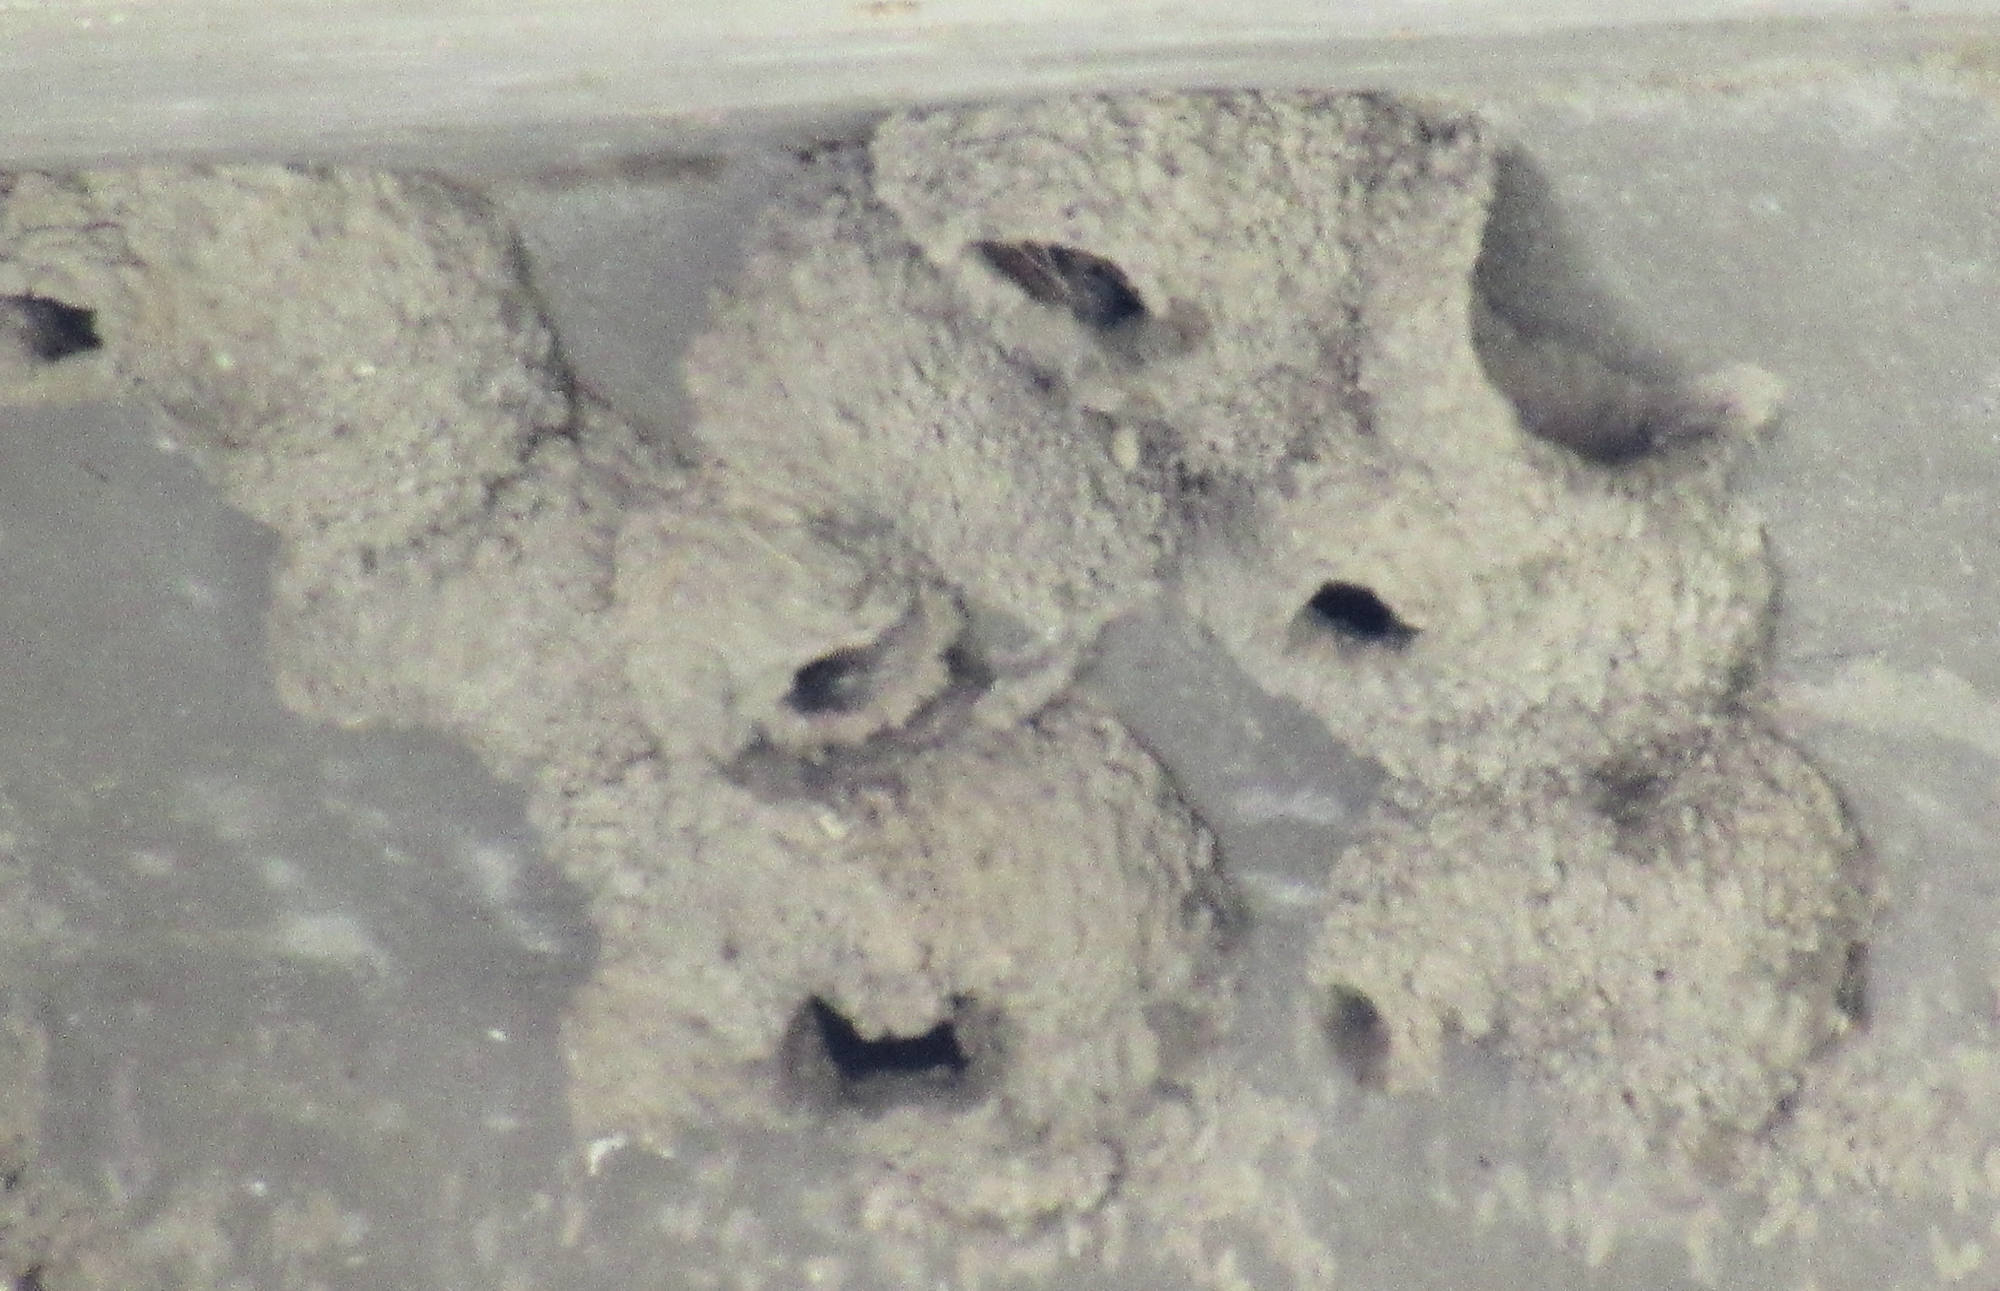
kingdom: Animalia
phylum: Chordata
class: Aves
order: Passeriformes
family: Hirundinidae
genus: Petrochelidon
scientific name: Petrochelidon pyrrhonota
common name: American cliff swallow
